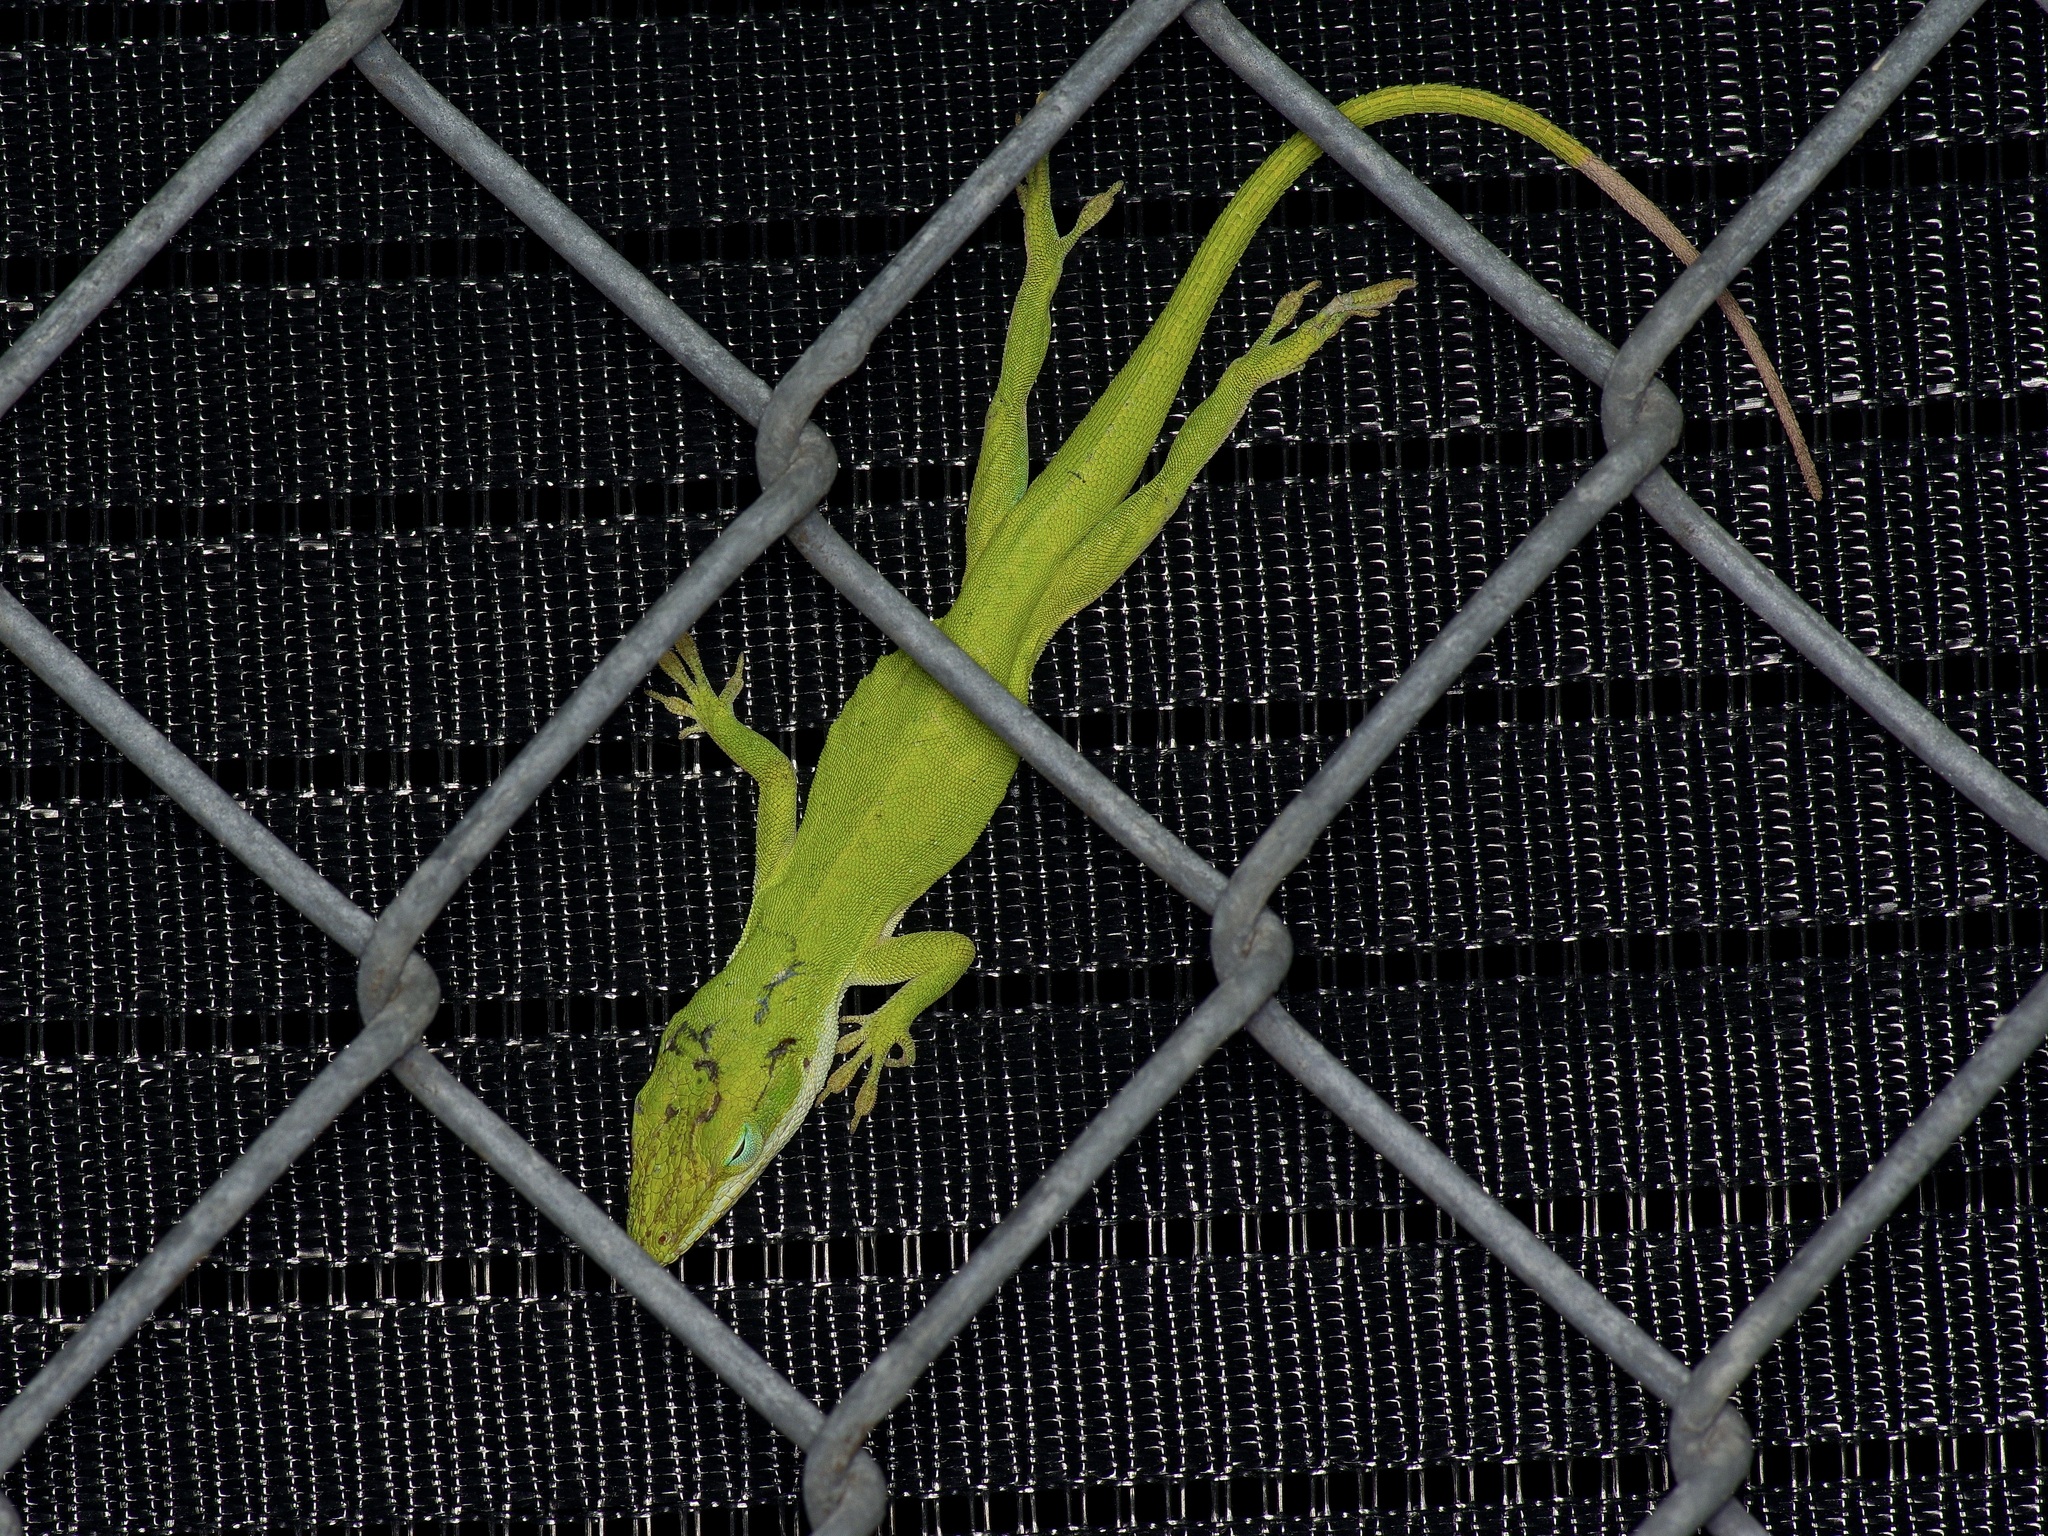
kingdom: Animalia
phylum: Chordata
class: Squamata
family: Dactyloidae
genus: Anolis
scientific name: Anolis carolinensis
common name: Green anole
